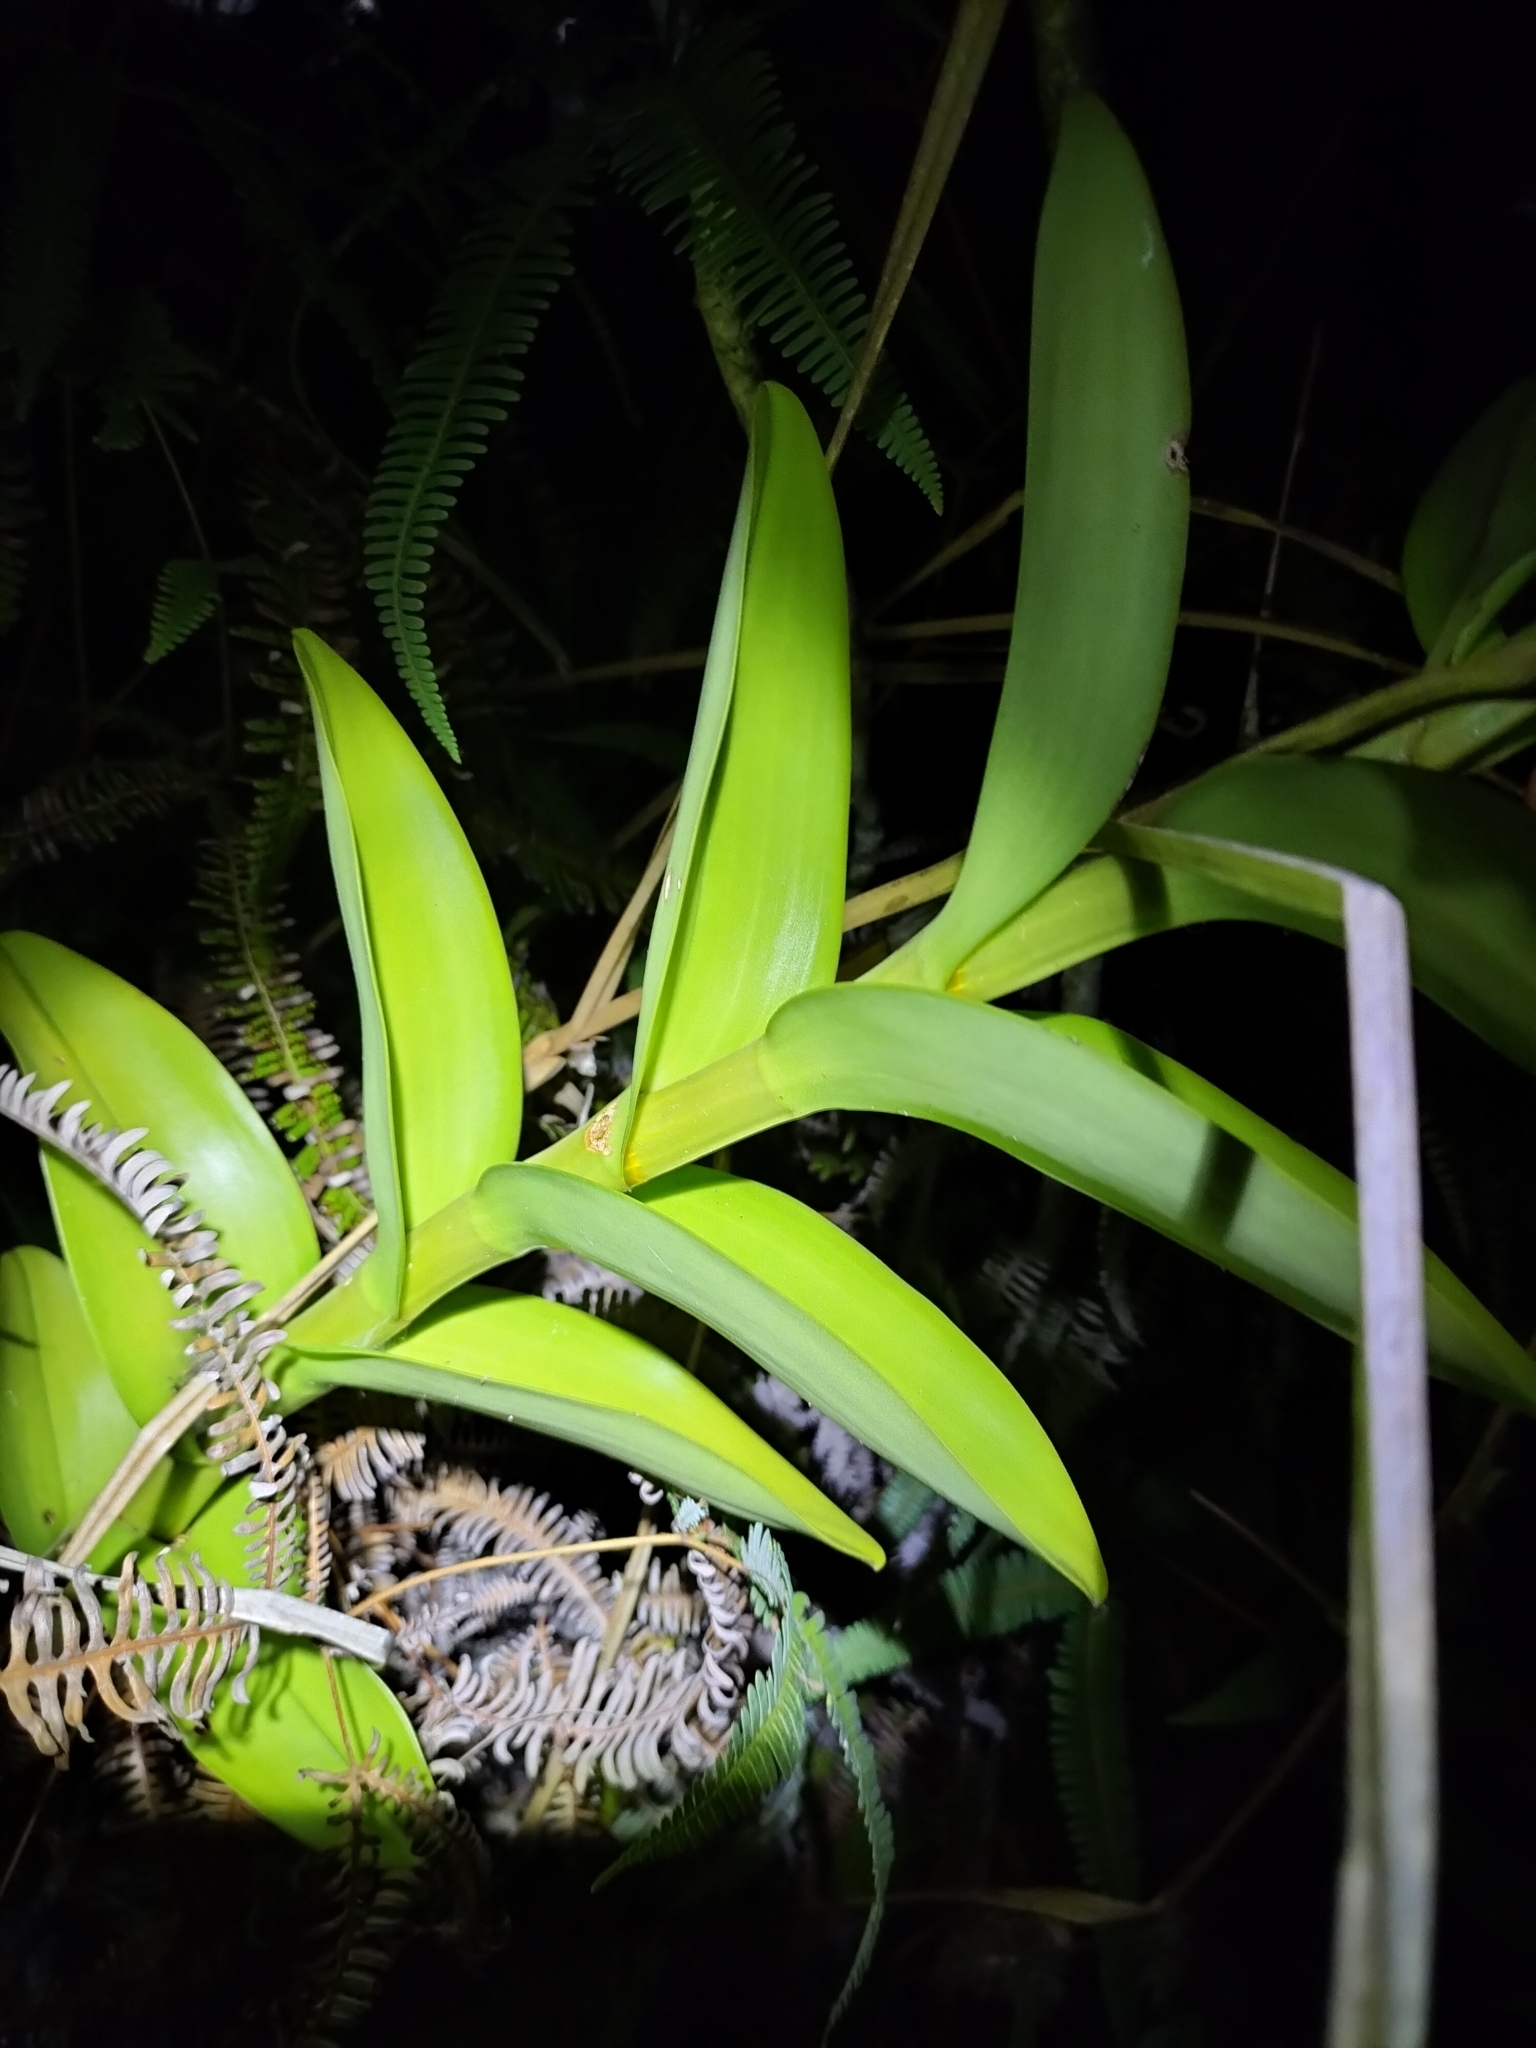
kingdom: Plantae
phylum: Tracheophyta
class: Liliopsida
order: Asparagales
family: Orchidaceae
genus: Dendrobium
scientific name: Dendrobium discolor
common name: Golden antler orchid
